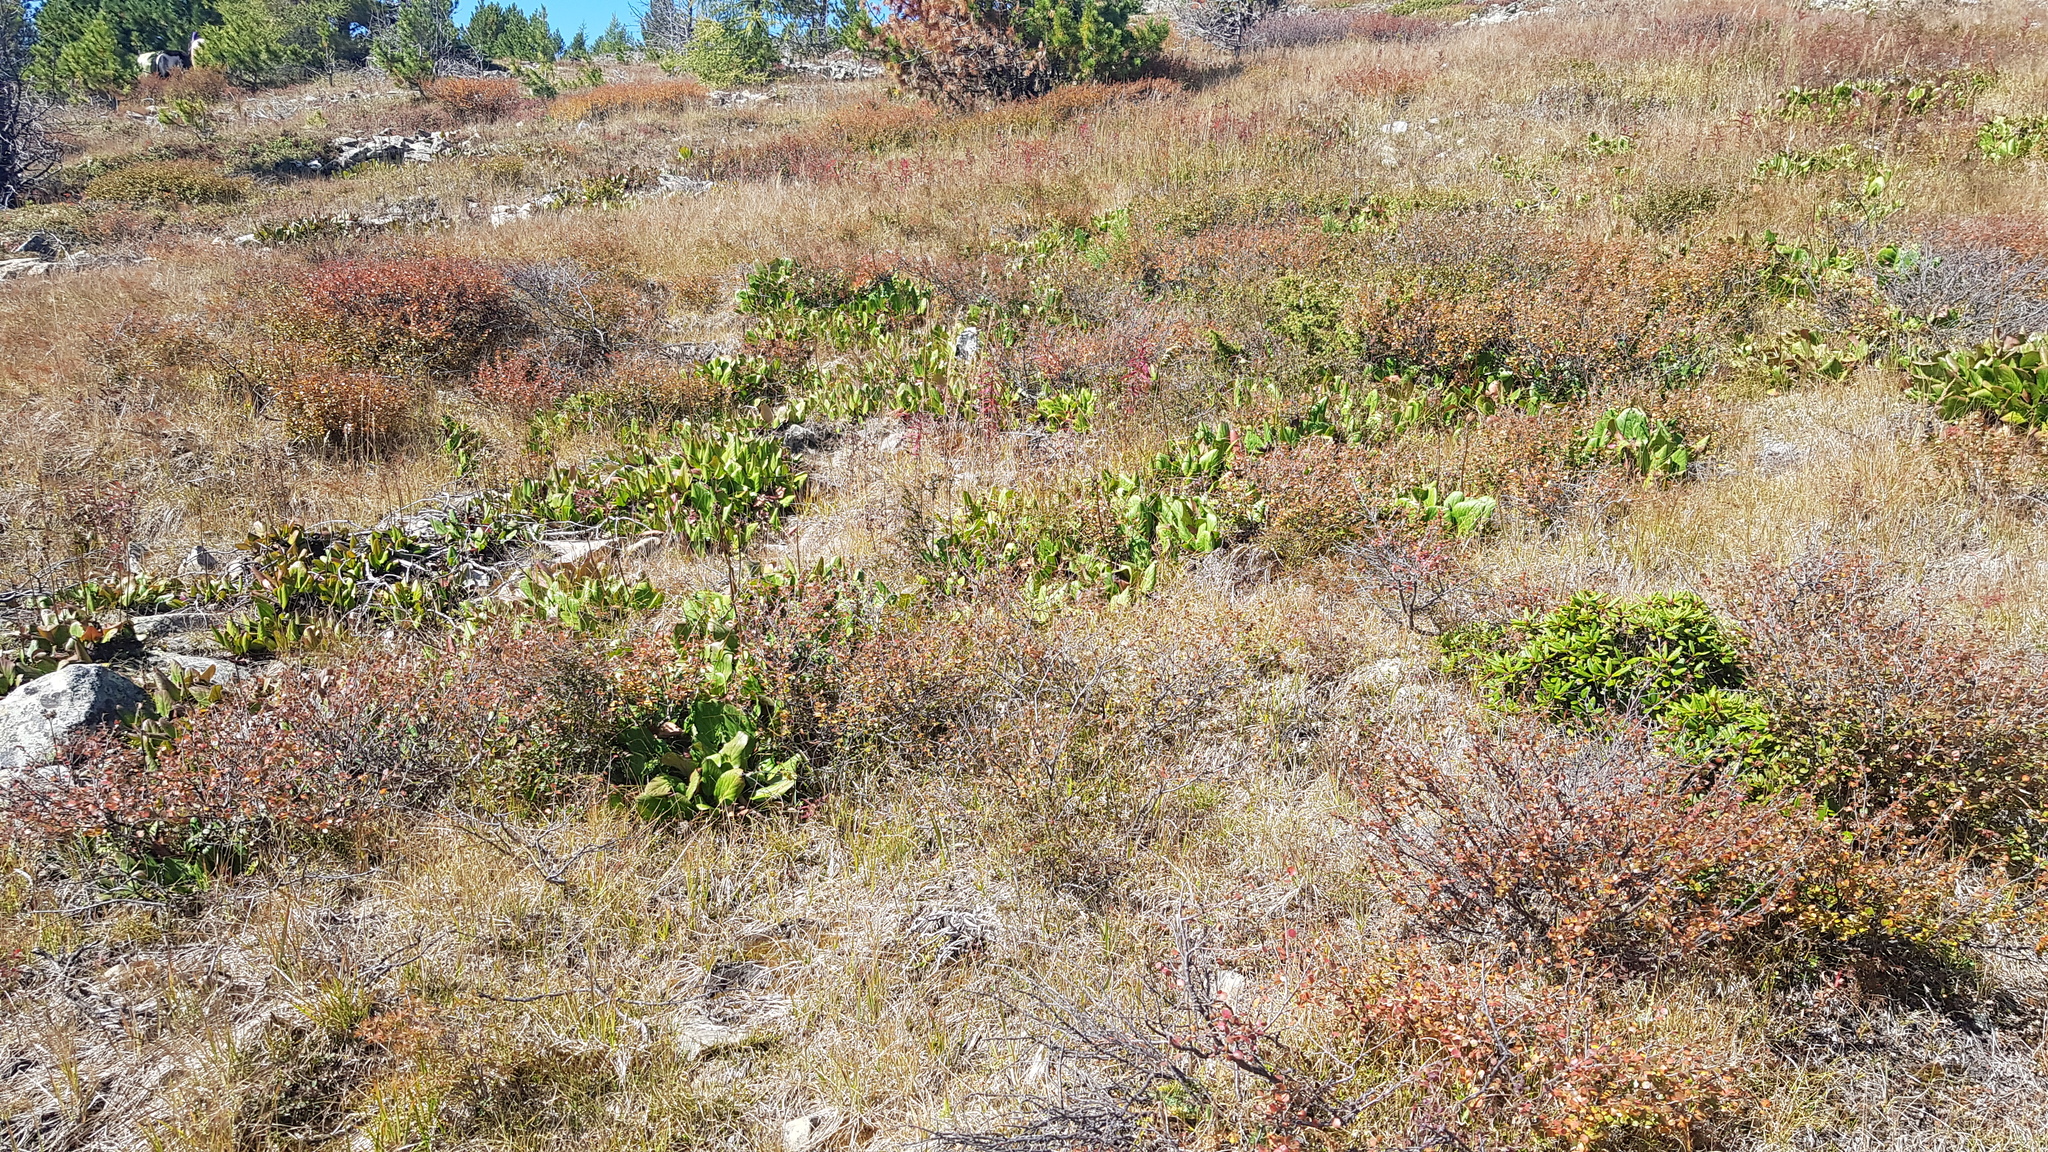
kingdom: Plantae
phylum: Tracheophyta
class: Magnoliopsida
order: Saxifragales
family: Saxifragaceae
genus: Bergenia
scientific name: Bergenia crassifolia
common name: Elephant-ears
